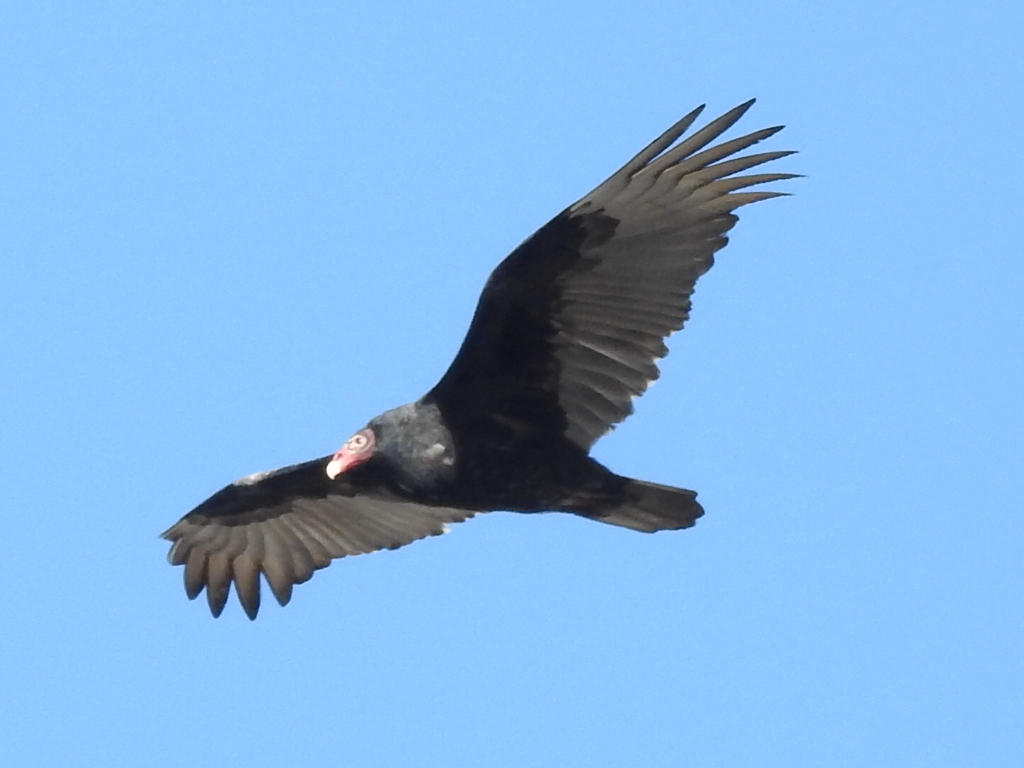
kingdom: Animalia
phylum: Chordata
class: Aves
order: Accipitriformes
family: Cathartidae
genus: Cathartes
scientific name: Cathartes aura
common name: Turkey vulture
